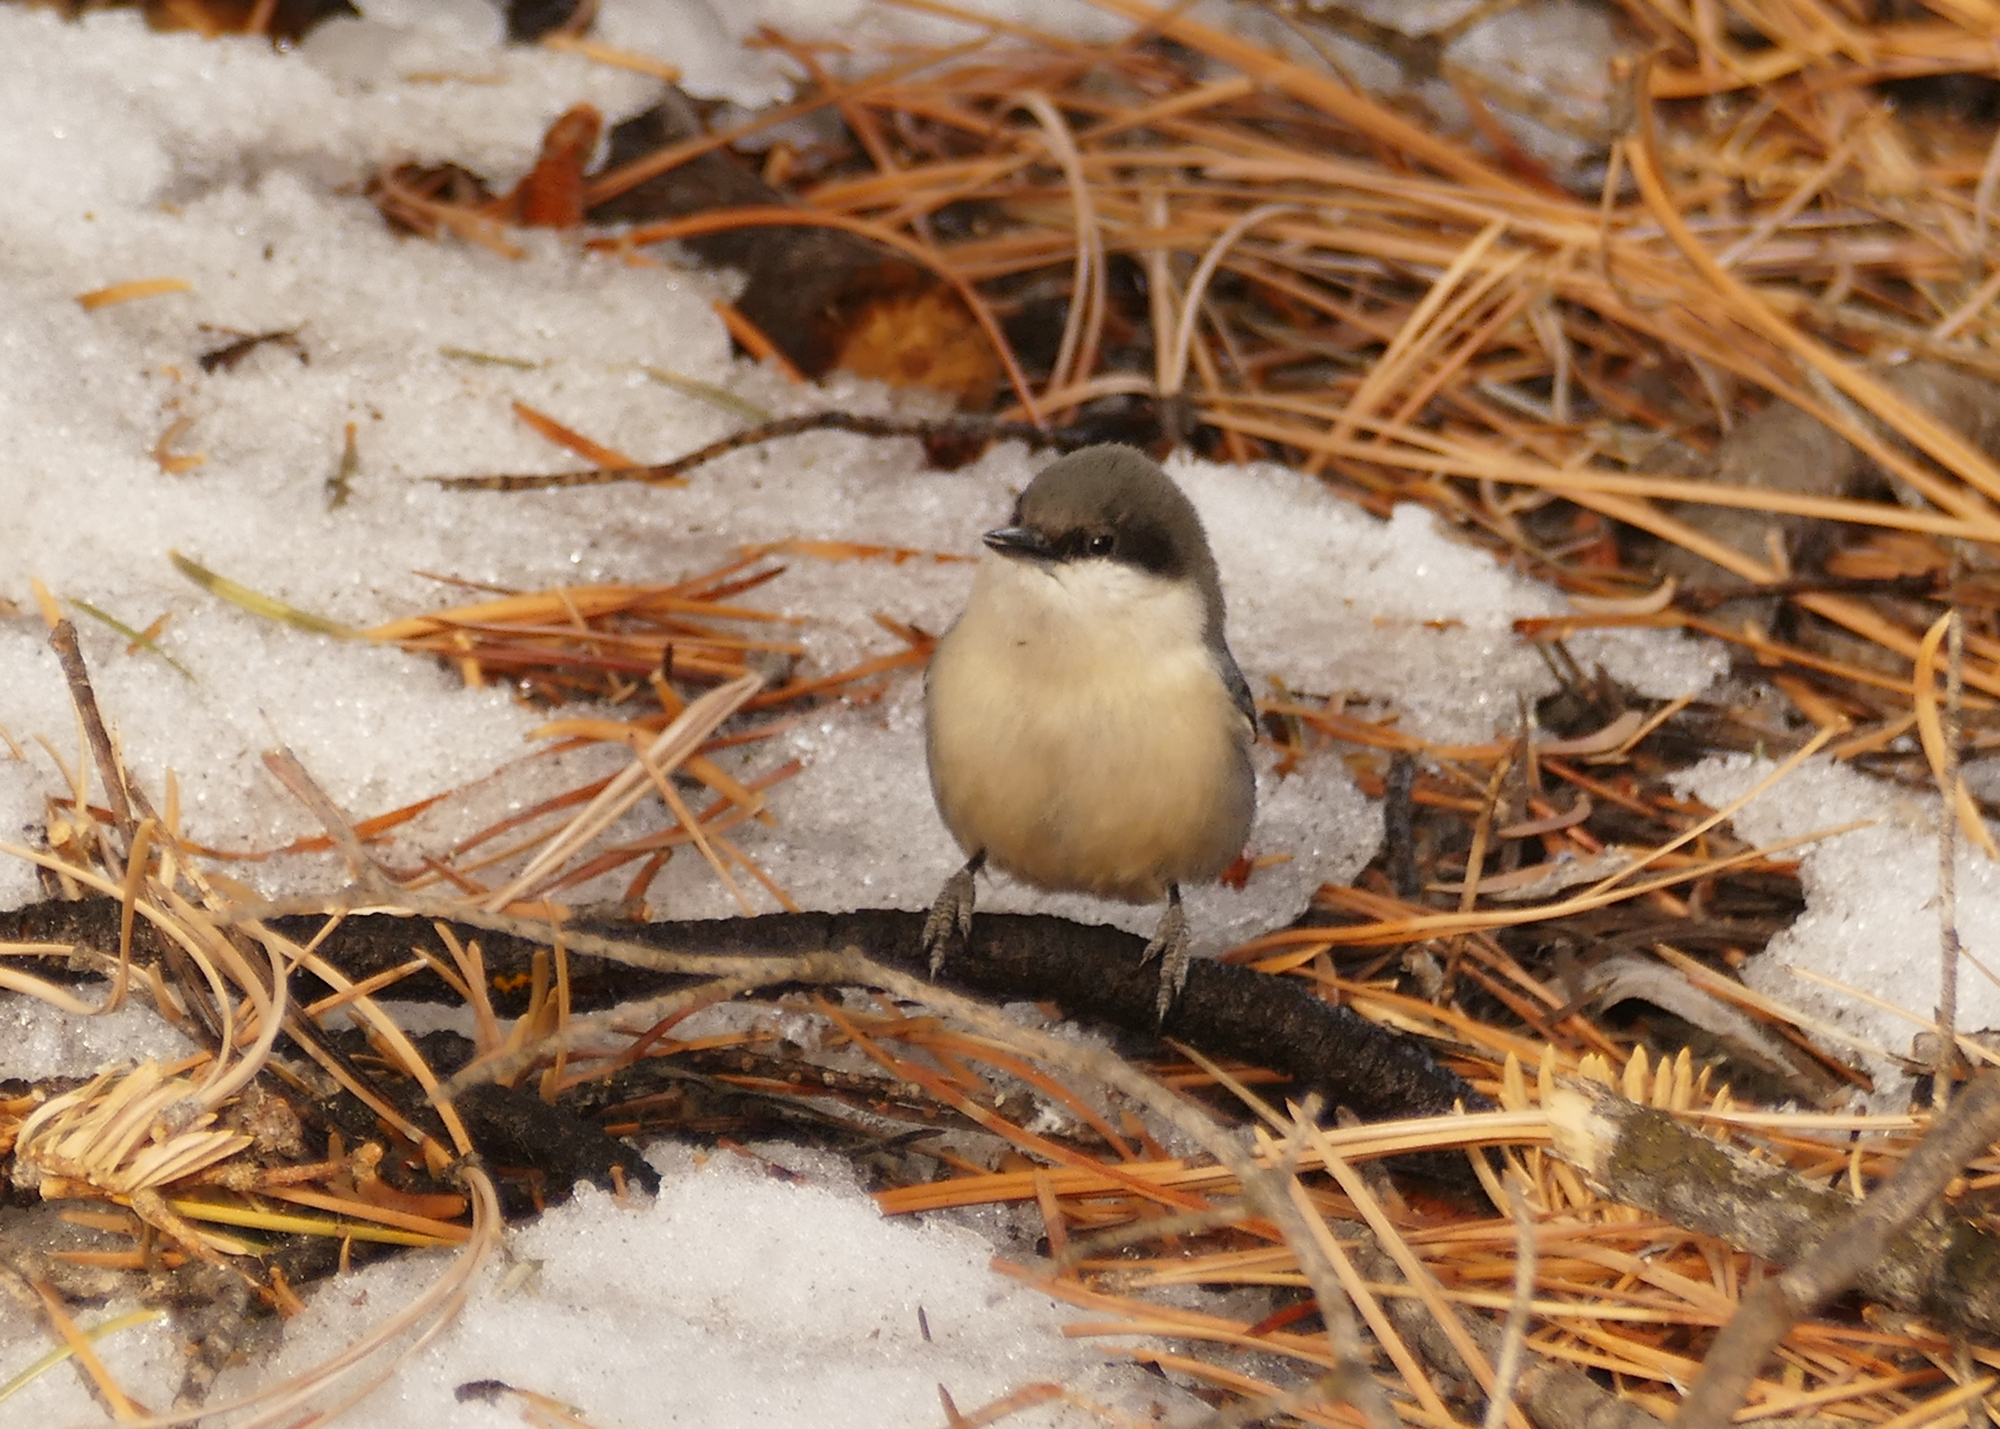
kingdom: Animalia
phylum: Chordata
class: Aves
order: Passeriformes
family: Sittidae
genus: Sitta
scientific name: Sitta pygmaea
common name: Pygmy nuthatch
